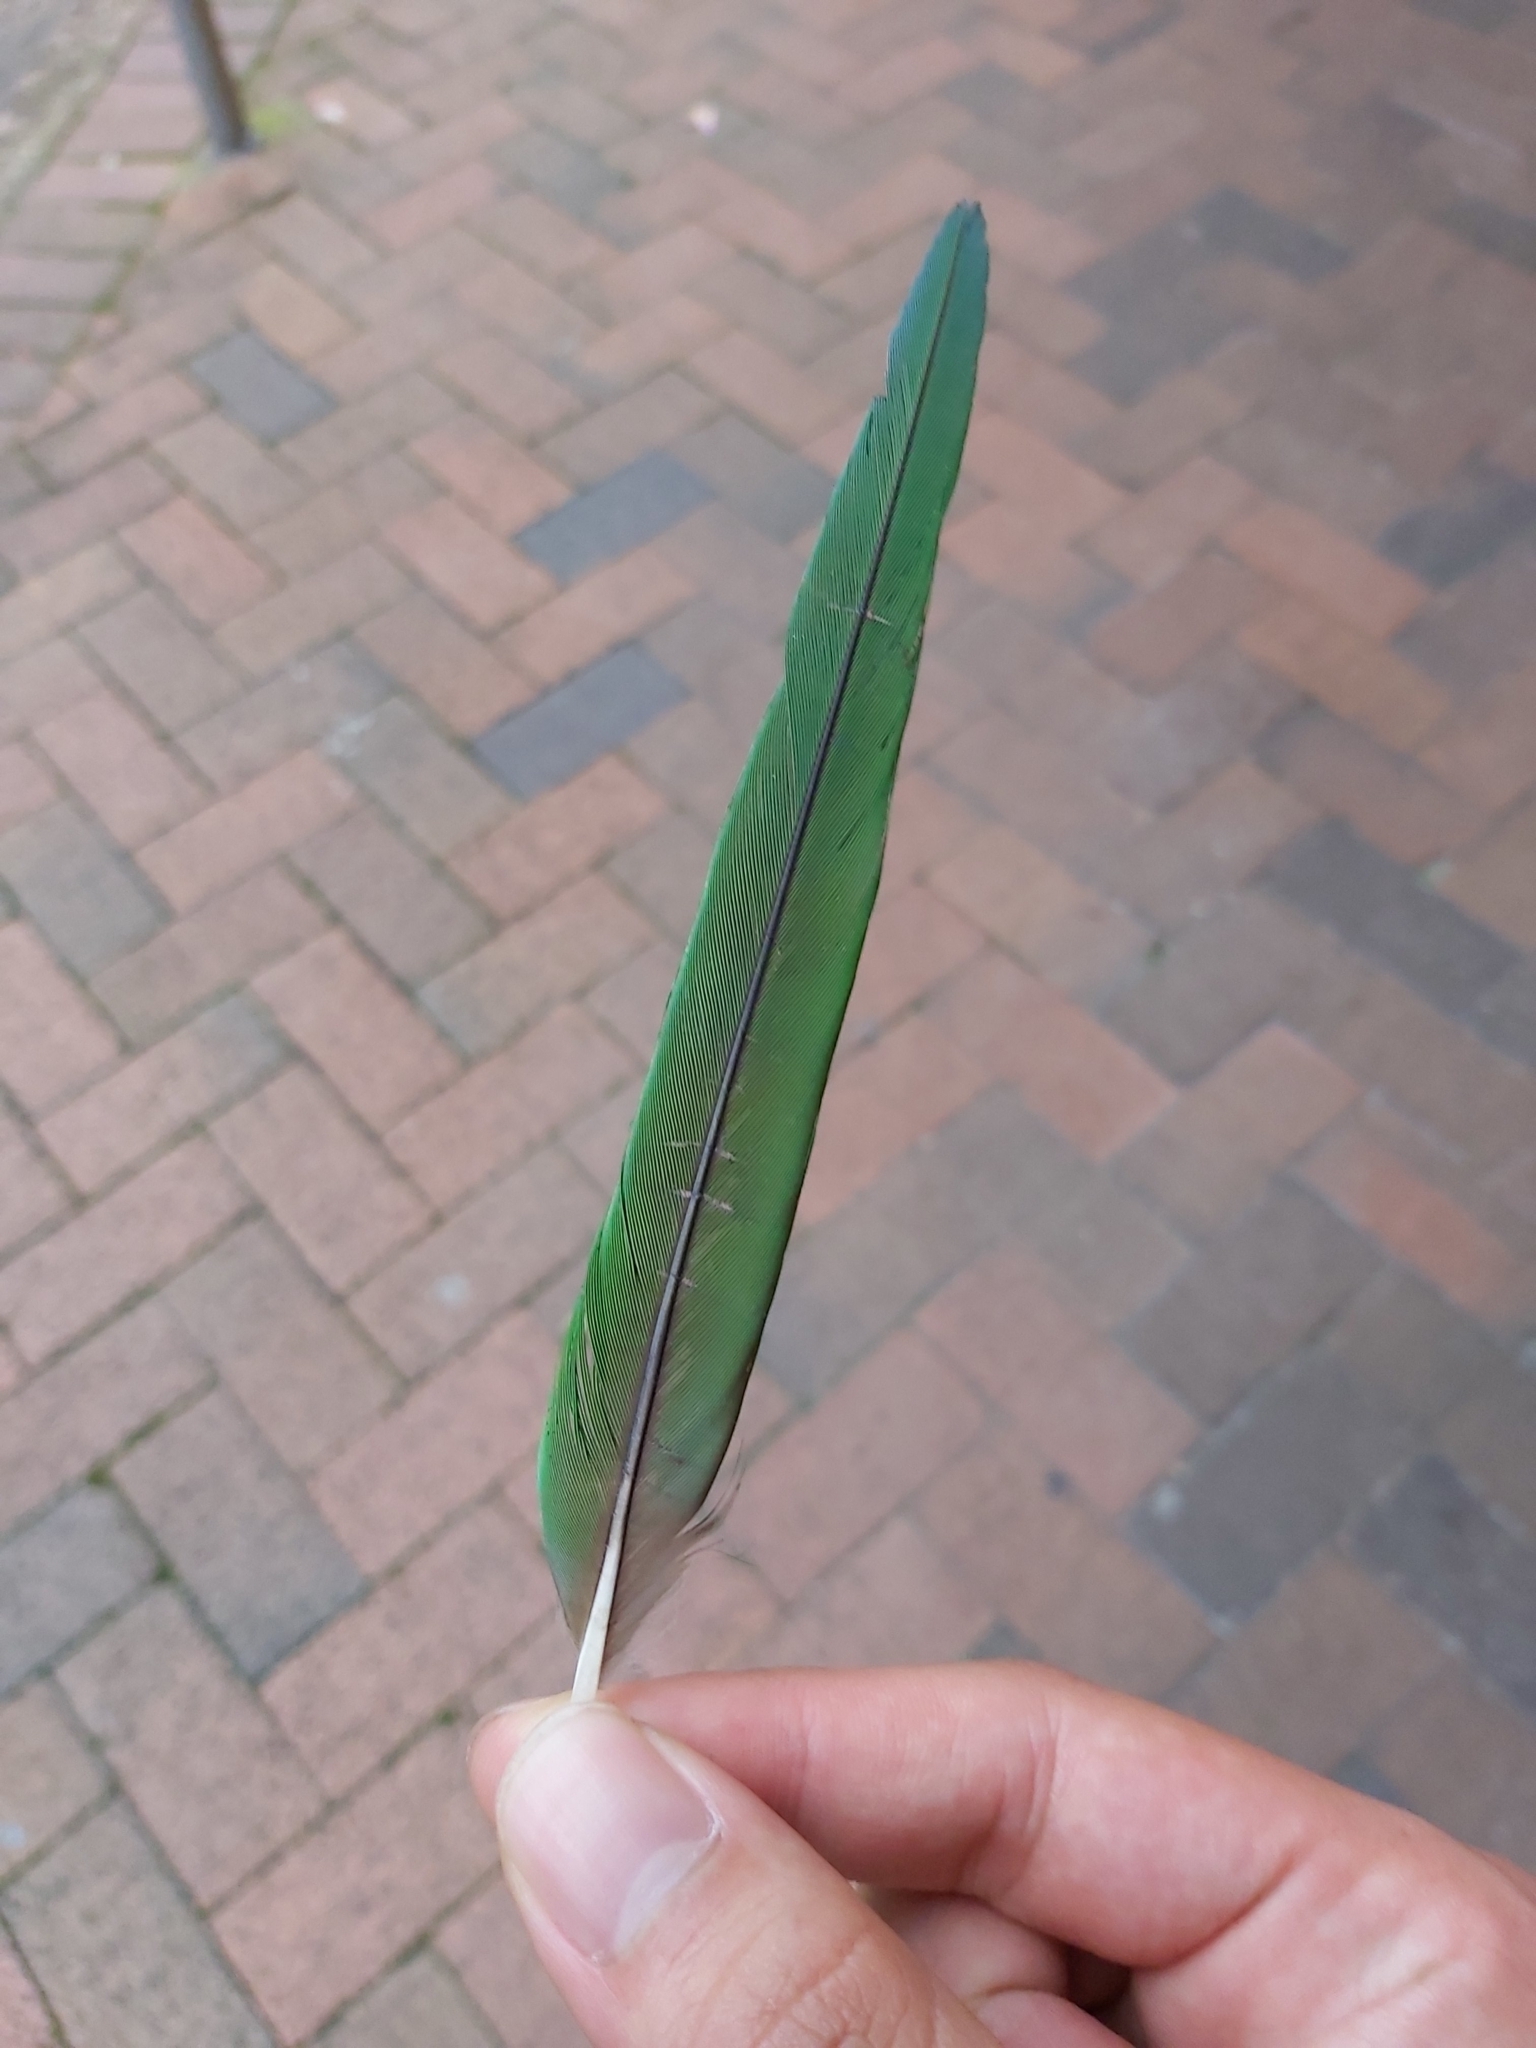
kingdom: Animalia
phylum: Chordata
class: Aves
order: Psittaciformes
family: Psittacidae
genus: Trichoglossus
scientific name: Trichoglossus haematodus
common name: Coconut lorikeet
